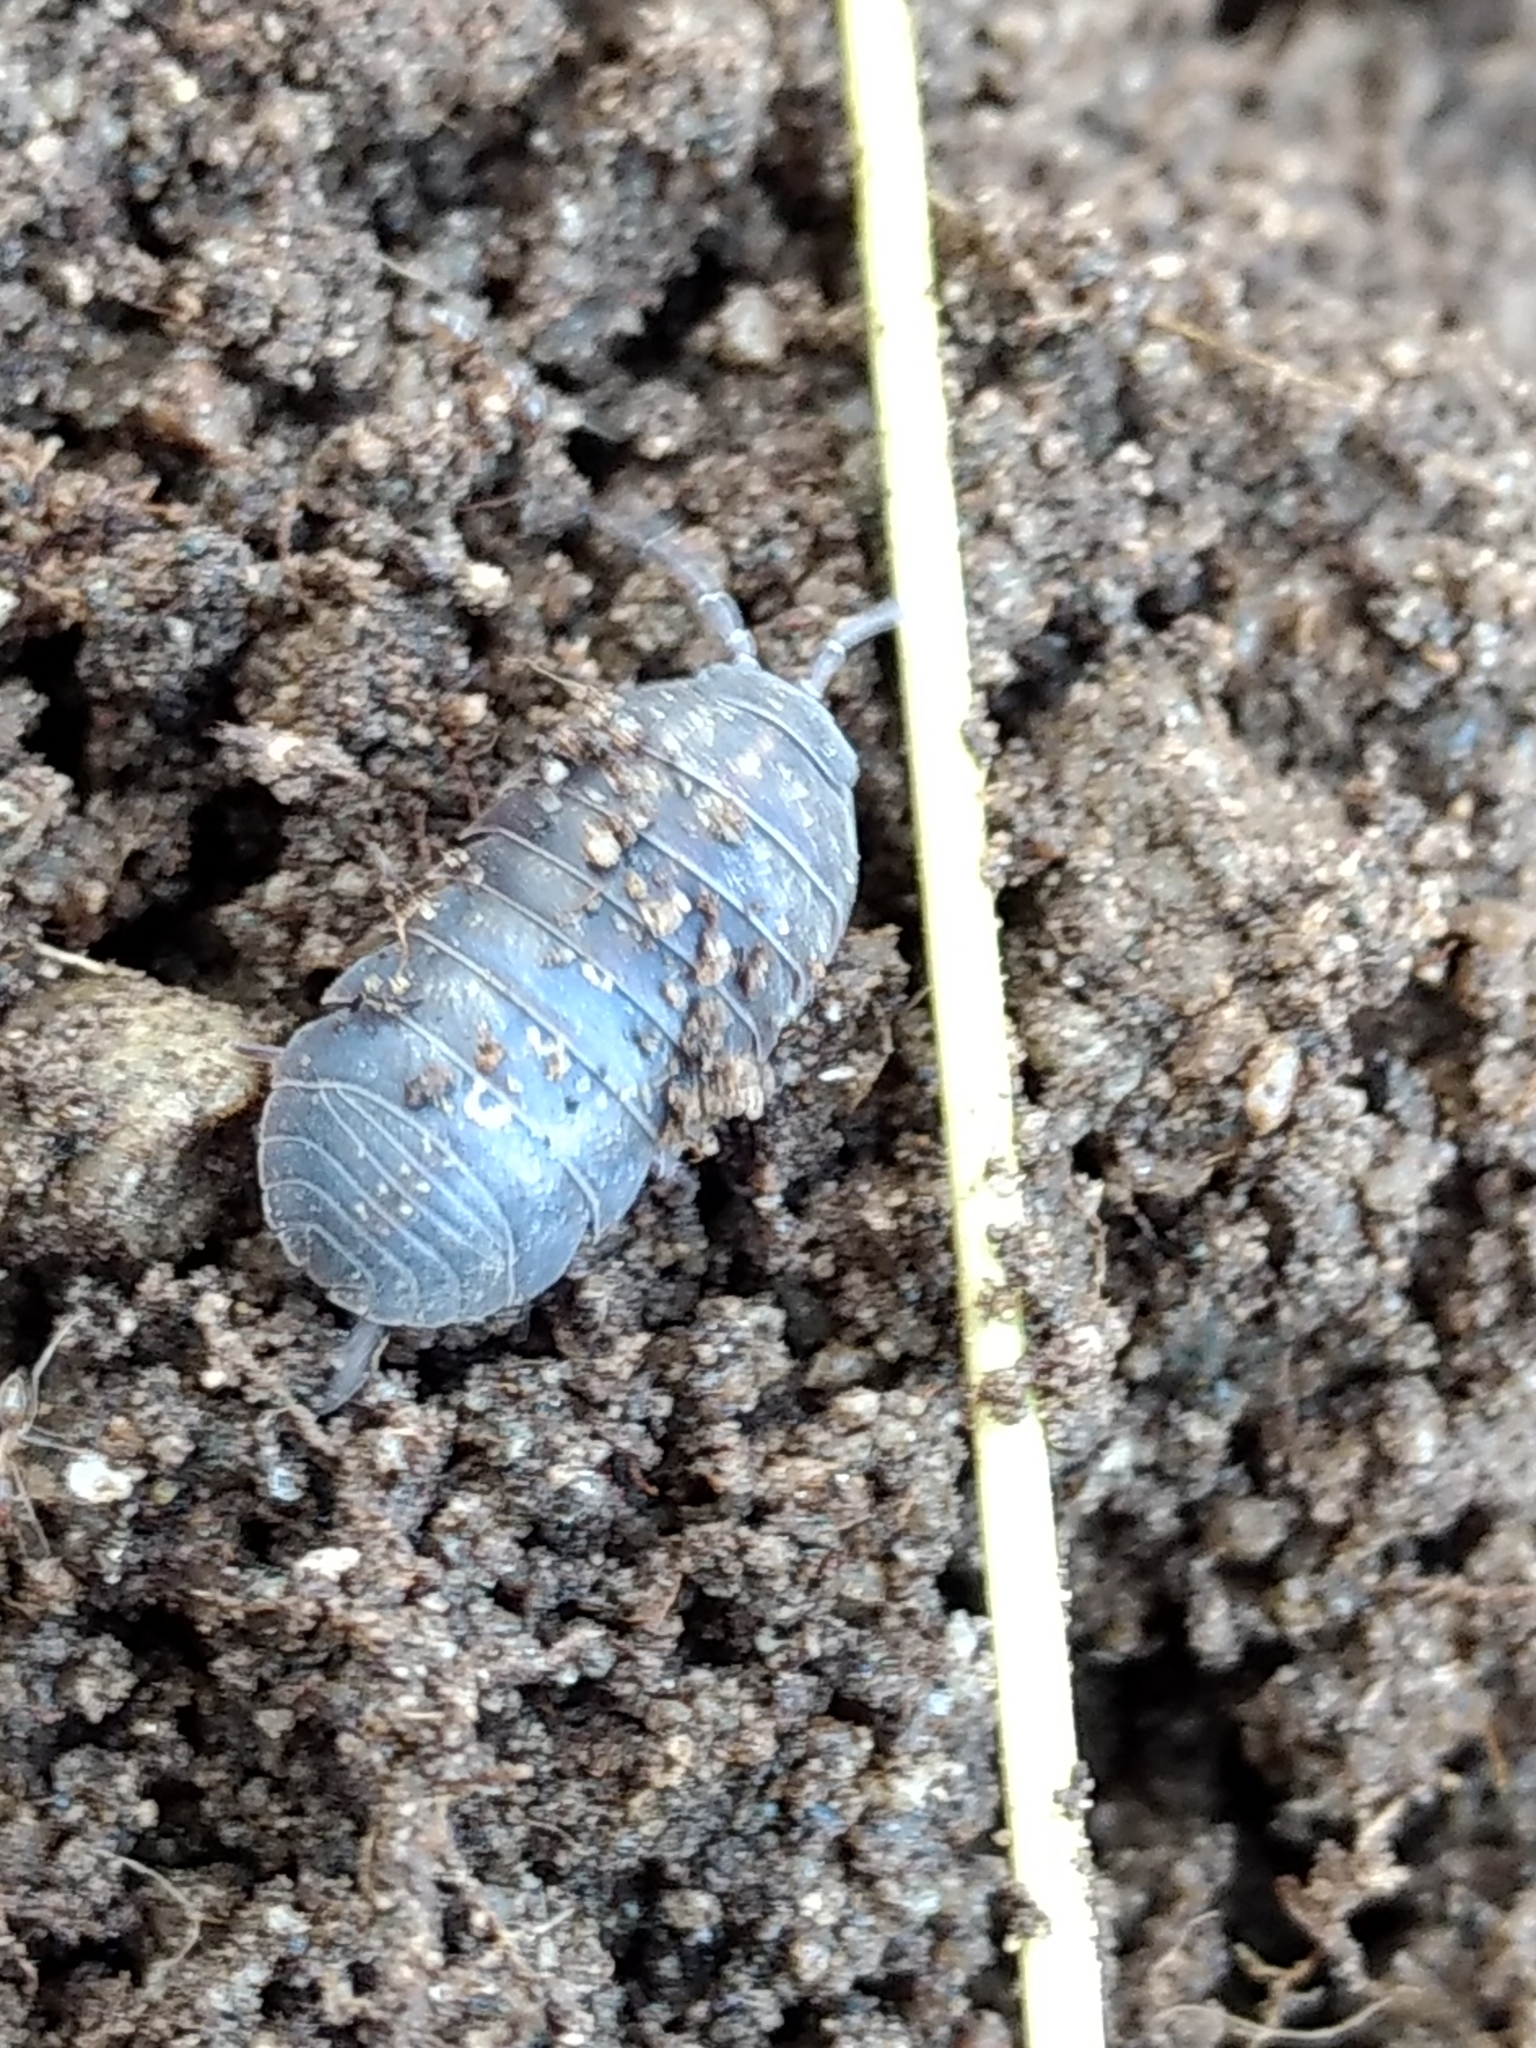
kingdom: Animalia
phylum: Arthropoda
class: Malacostraca
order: Isopoda
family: Armadillidiidae
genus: Armadillidium
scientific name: Armadillidium vulgare
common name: Common pill woodlouse
